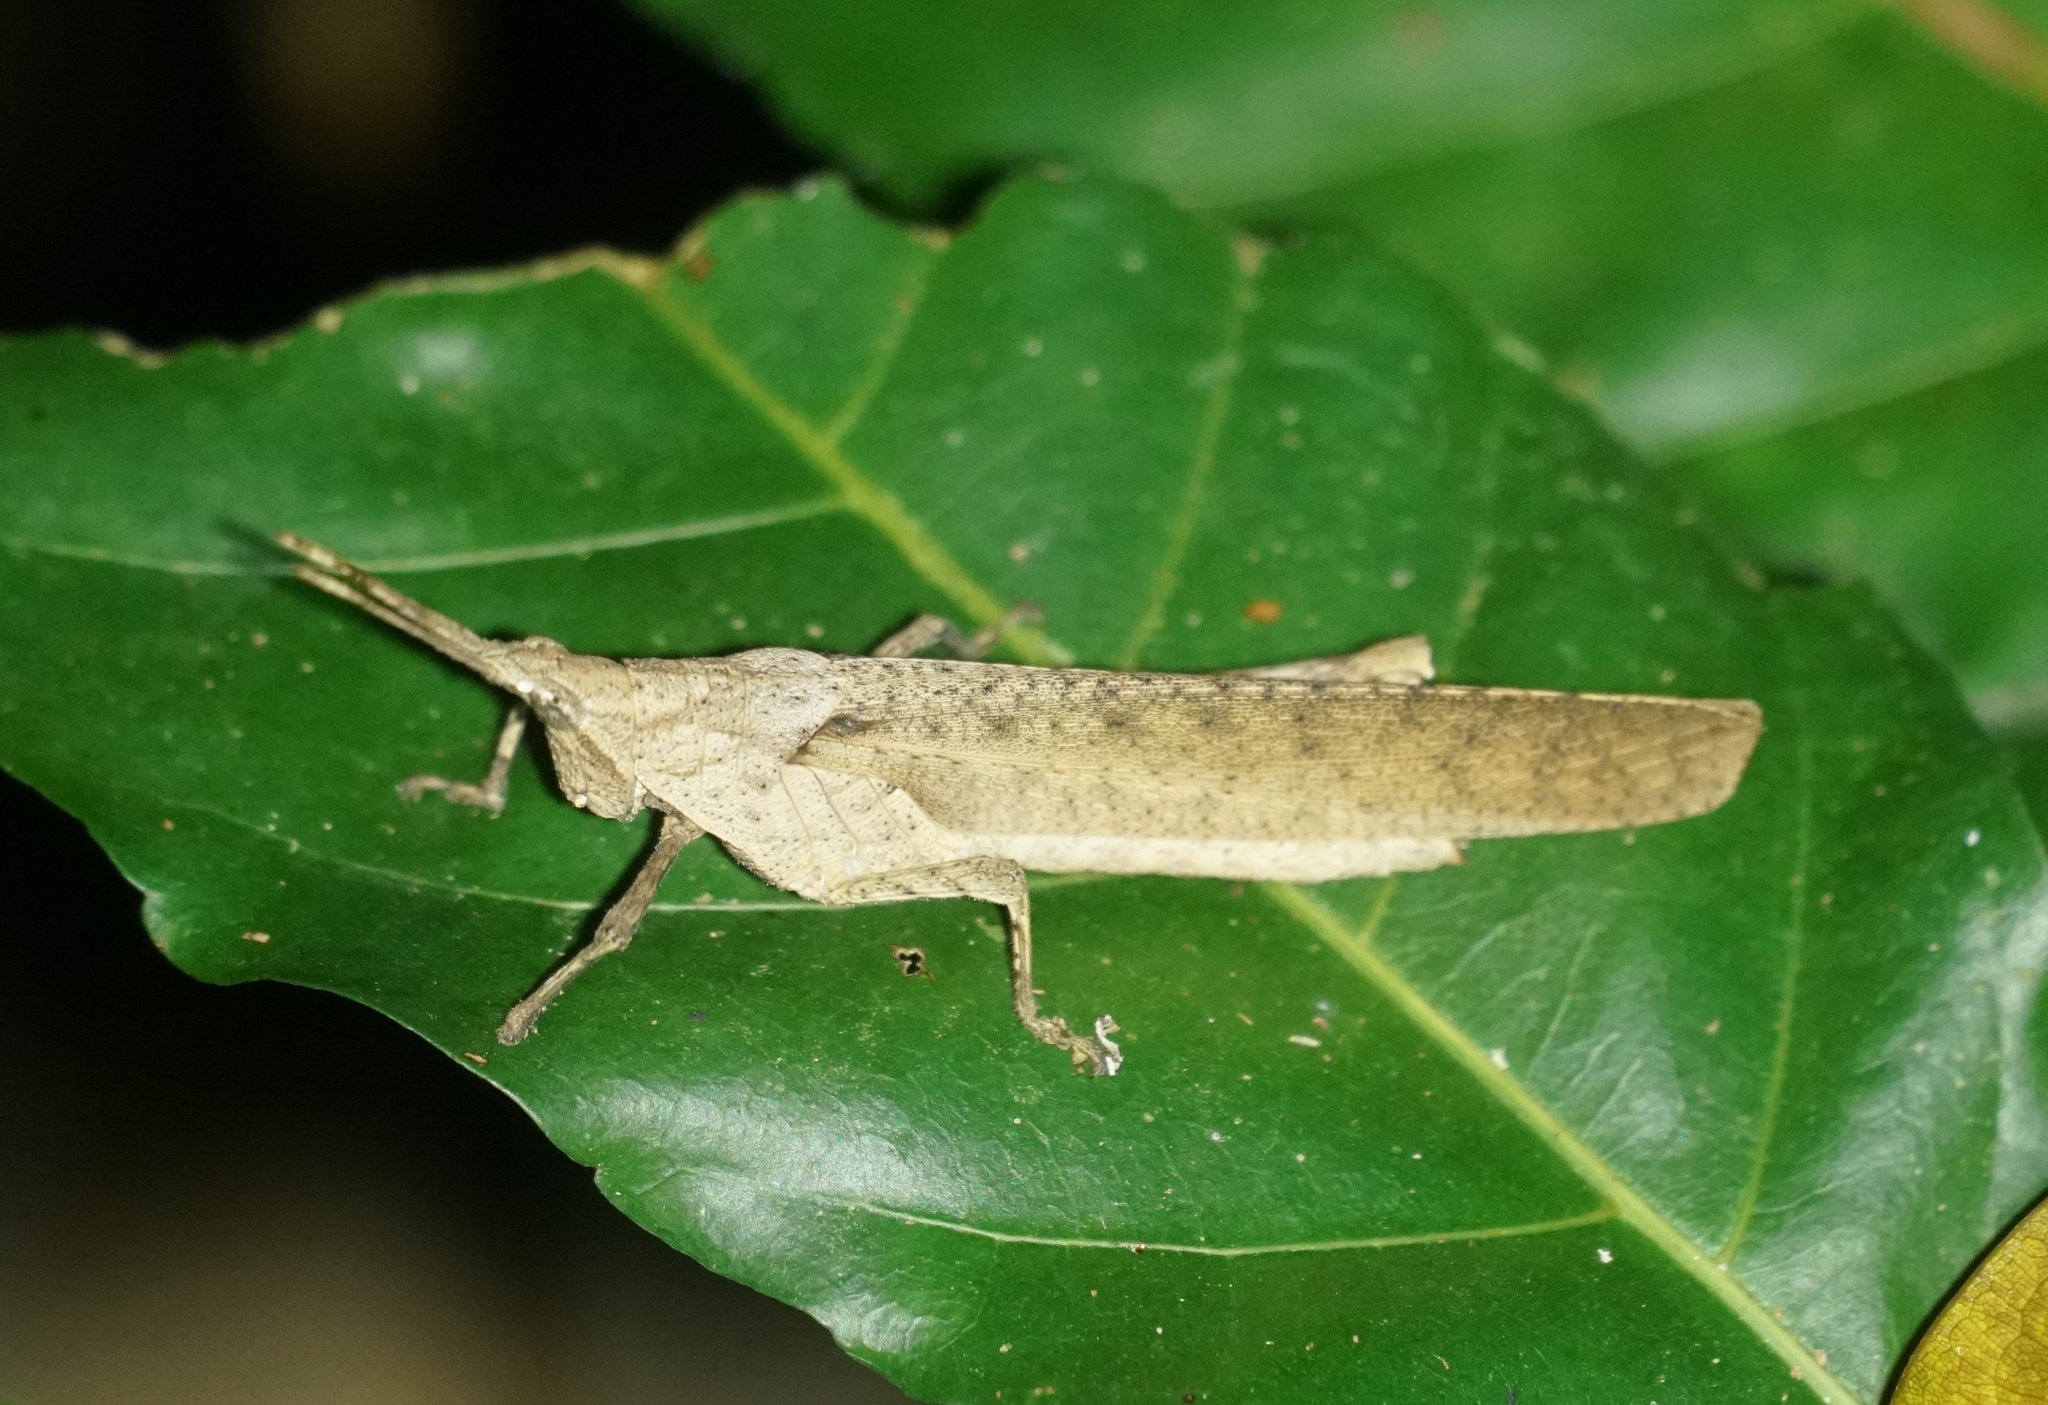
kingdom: Animalia
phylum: Arthropoda
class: Insecta
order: Orthoptera
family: Pyrgomorphidae
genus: Desmoptera
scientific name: Desmoptera truncatipennis
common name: Large forest pyrgomorph
